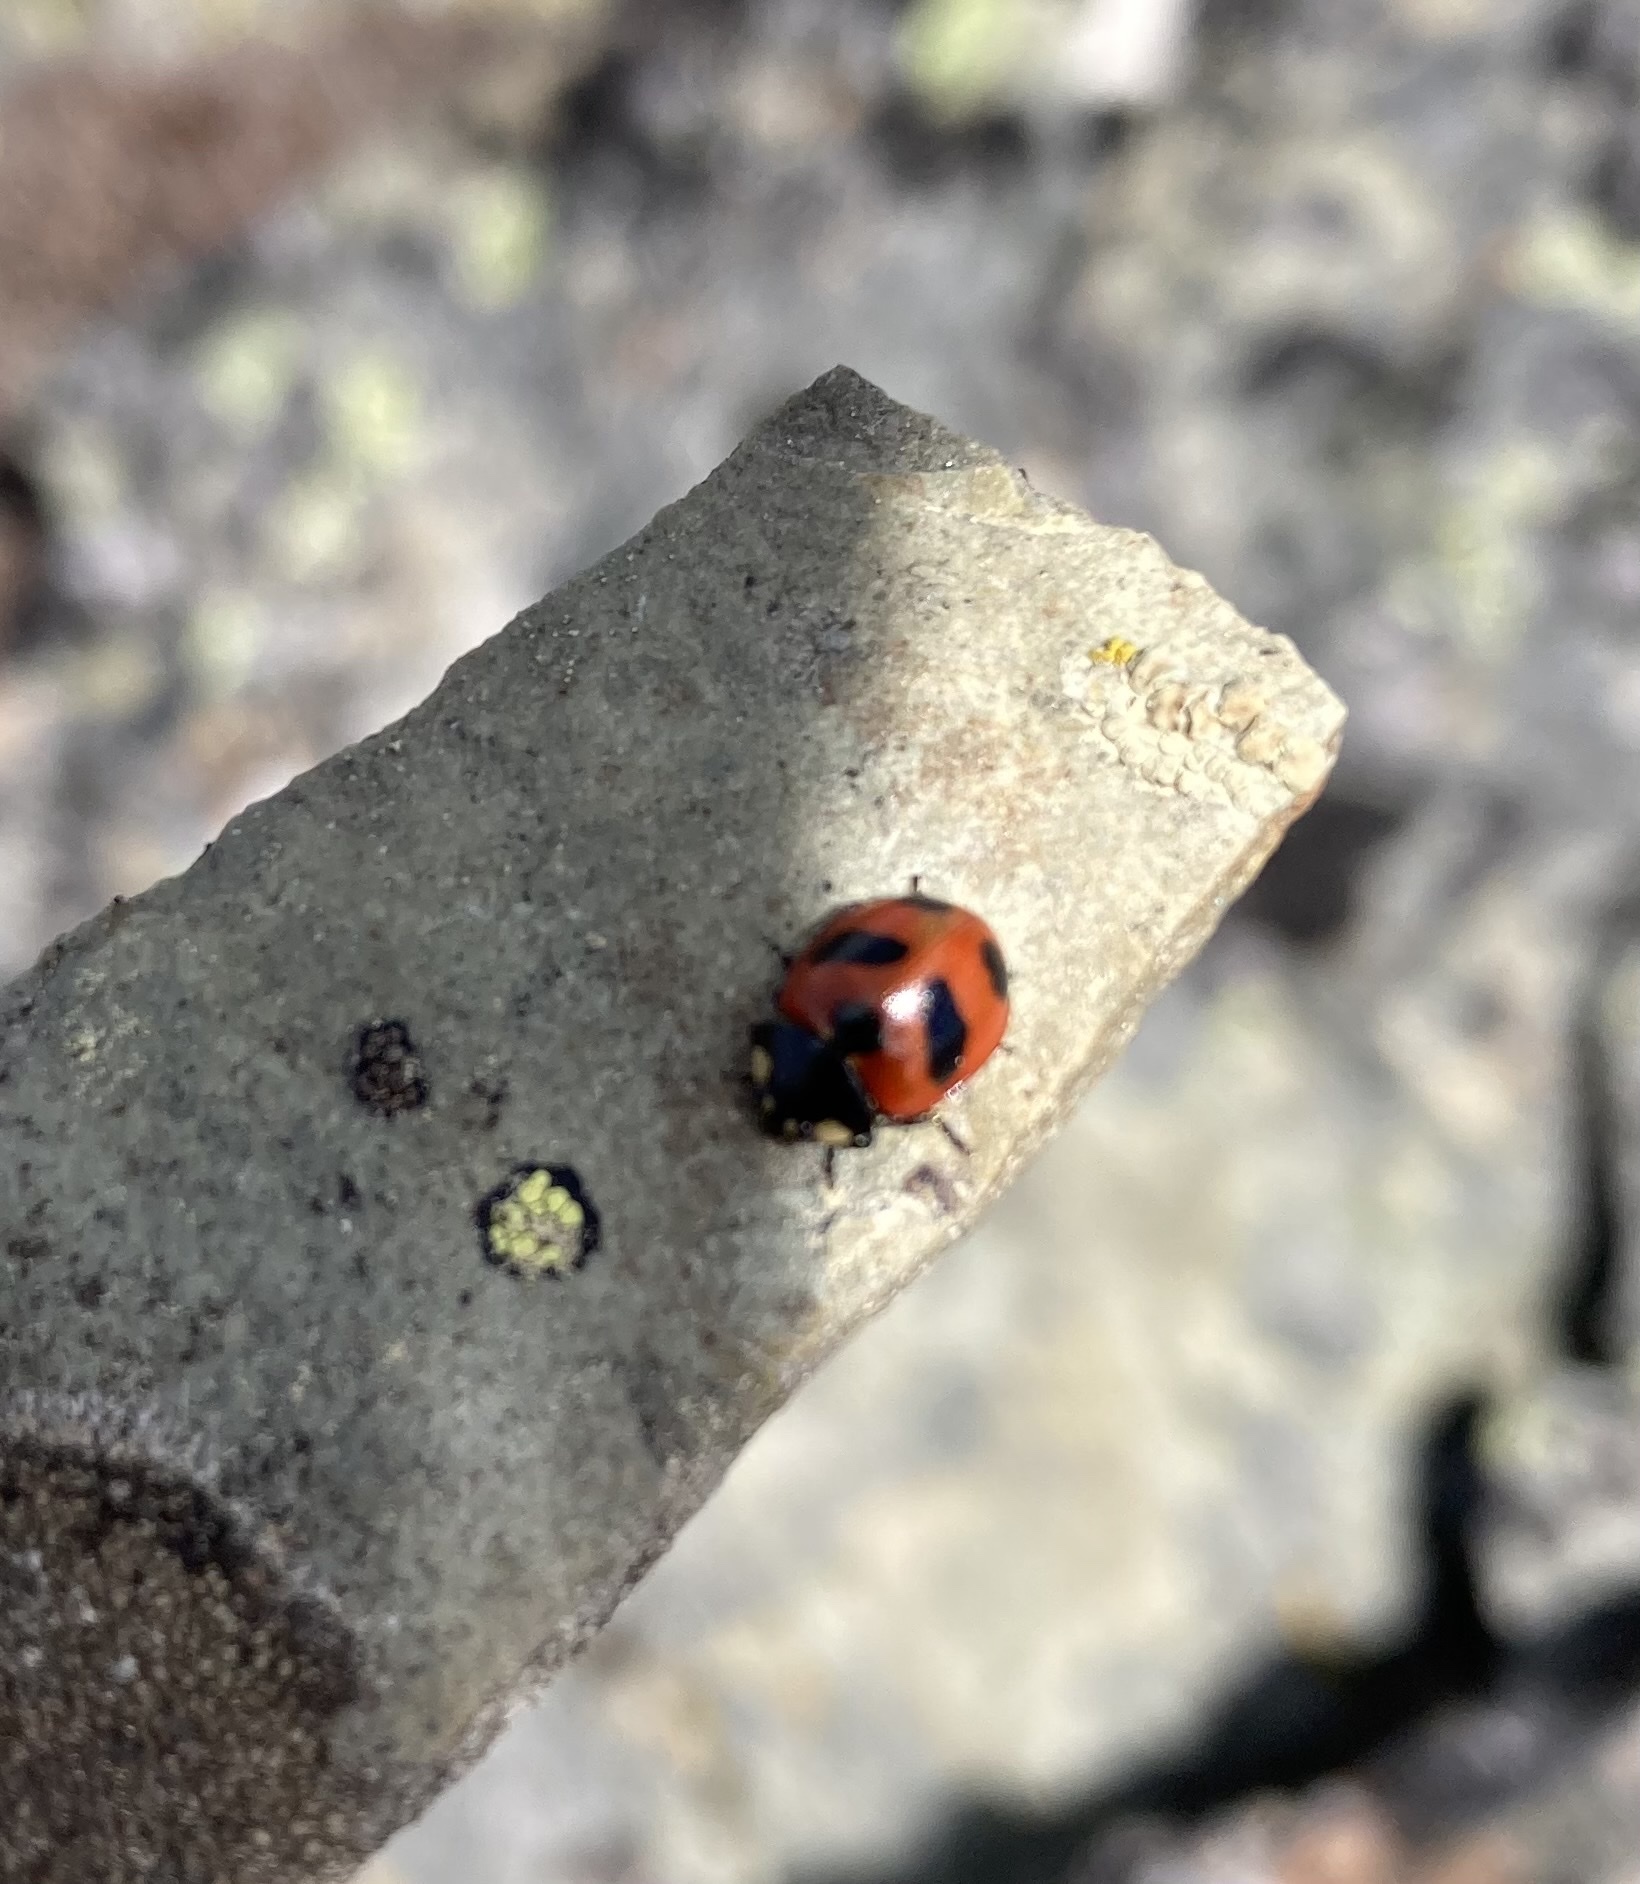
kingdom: Animalia
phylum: Arthropoda
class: Insecta
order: Coleoptera
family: Coccinellidae
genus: Coccinella
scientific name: Coccinella monticola
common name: Mountain lady beetle
